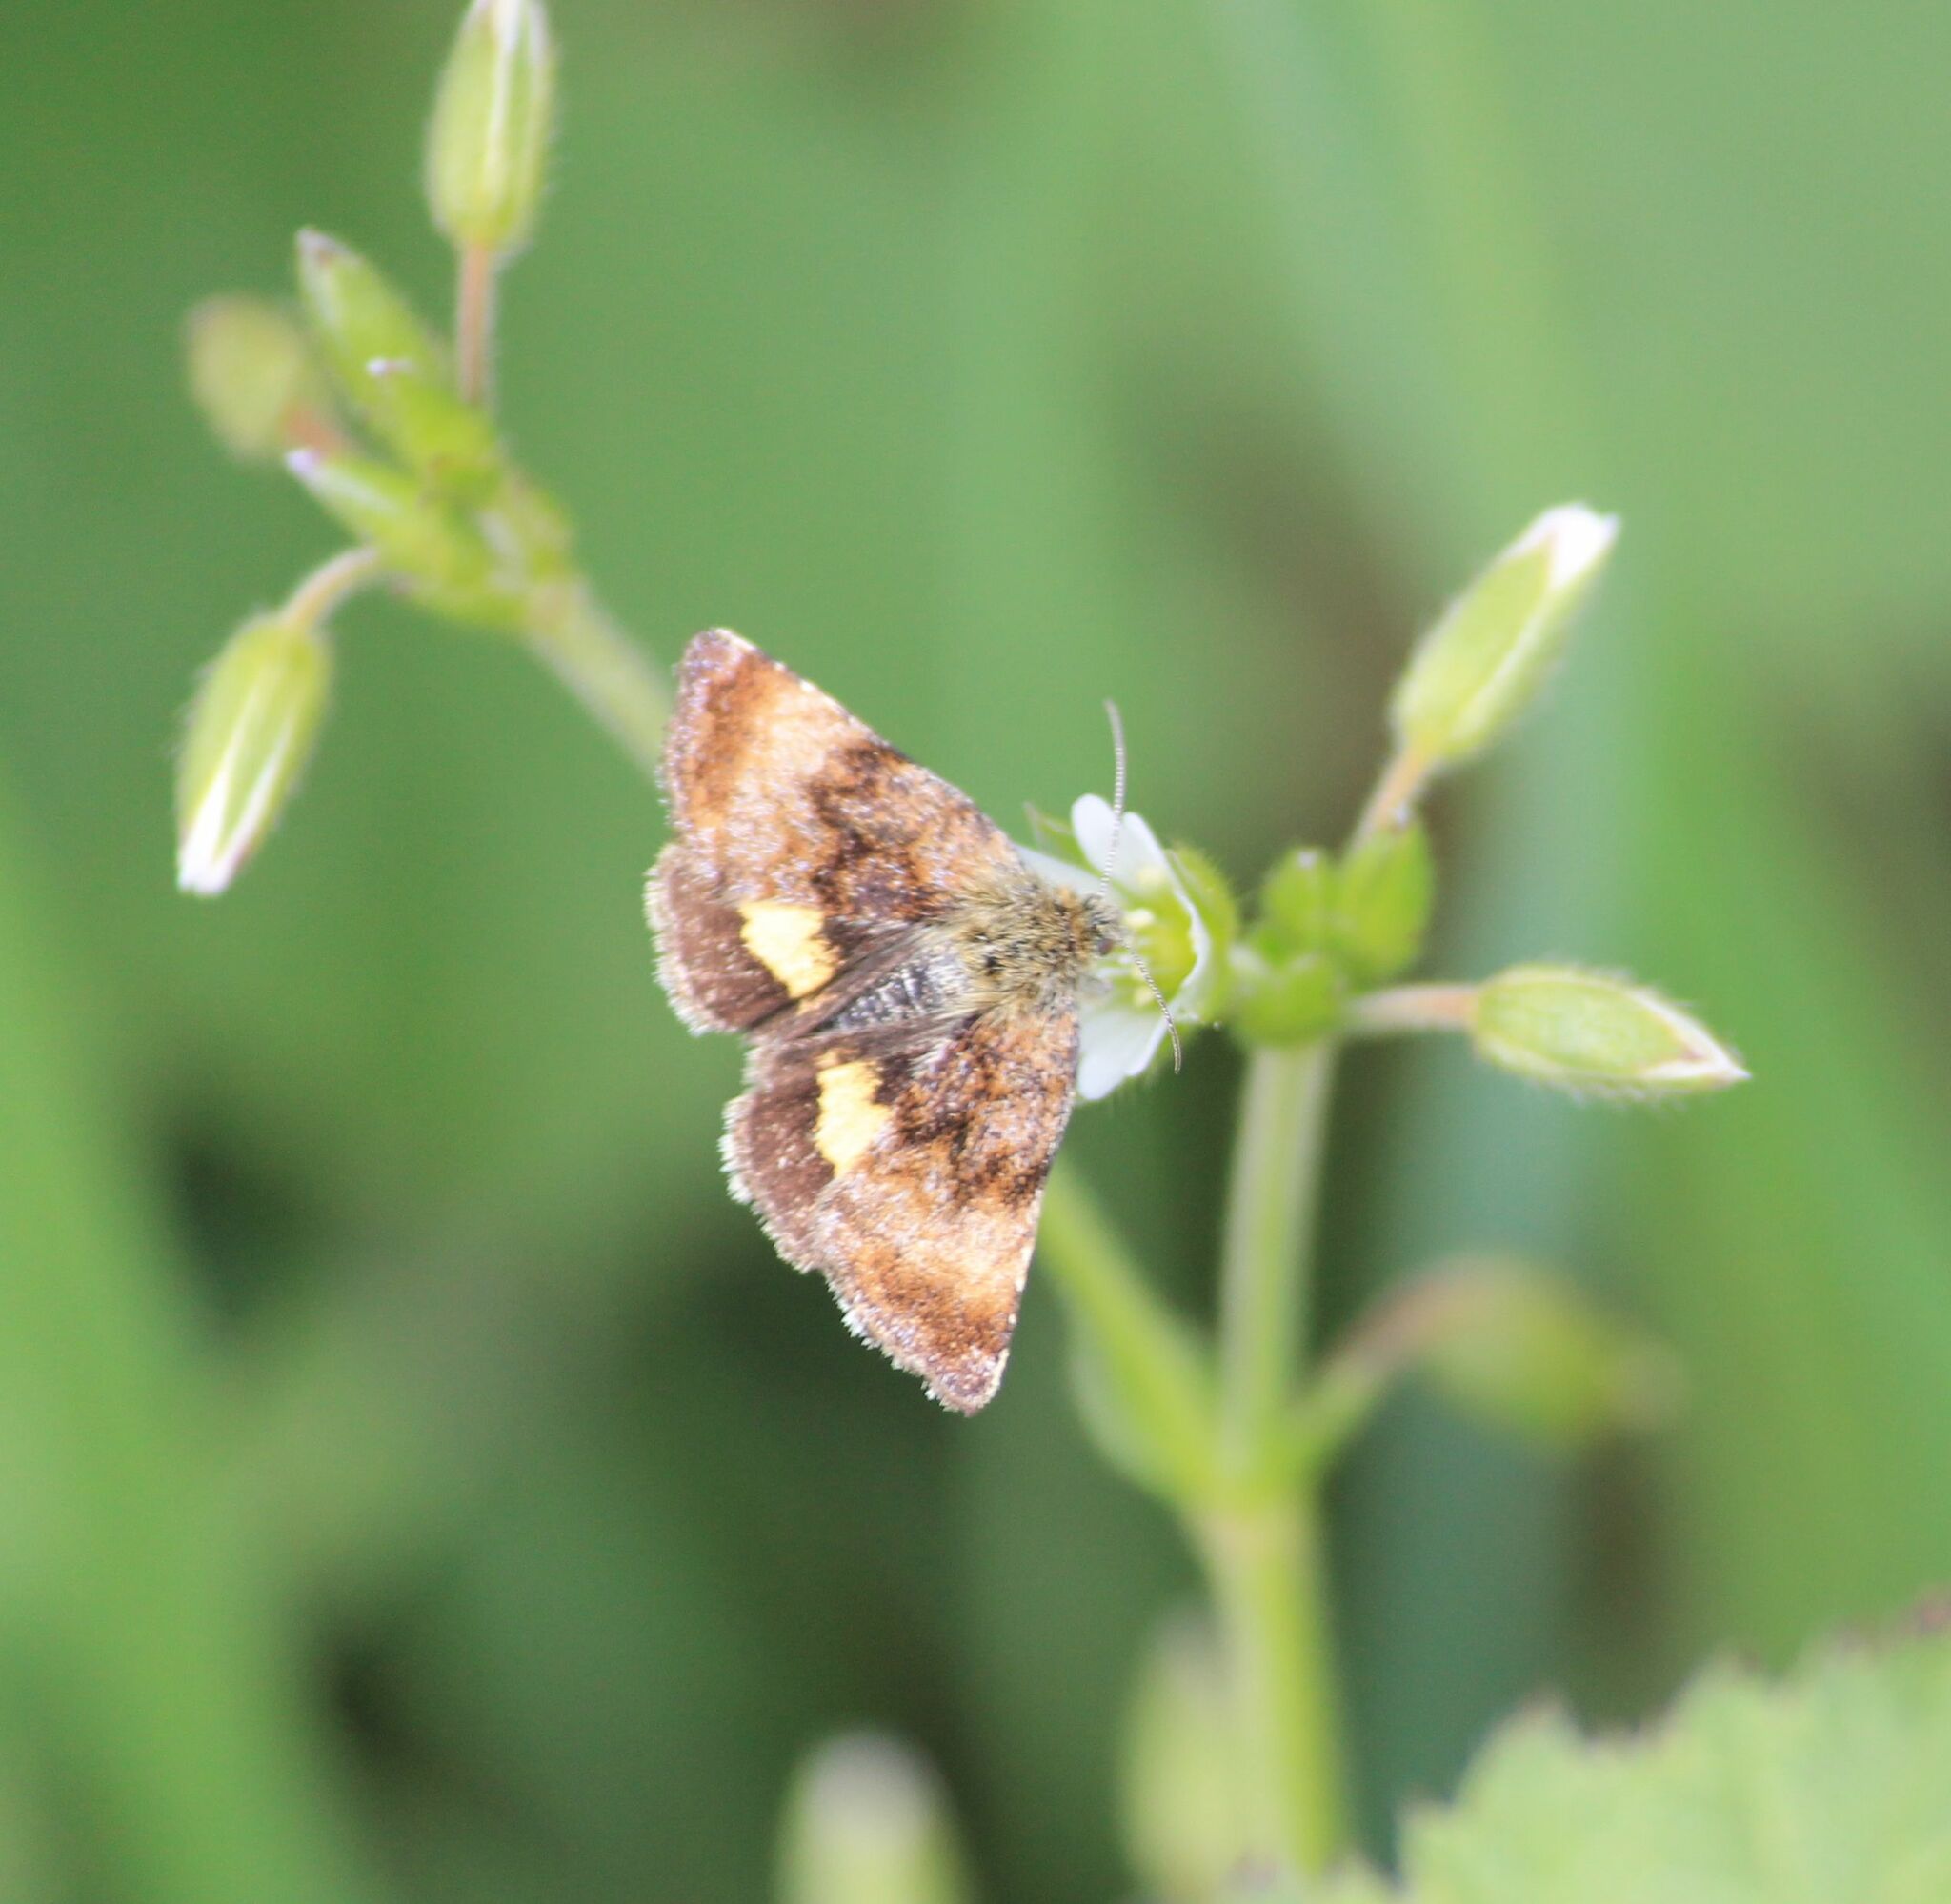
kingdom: Animalia
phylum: Arthropoda
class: Insecta
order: Lepidoptera
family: Noctuidae
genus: Panemeria
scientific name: Panemeria tenebrata
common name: Small yellow underwing
